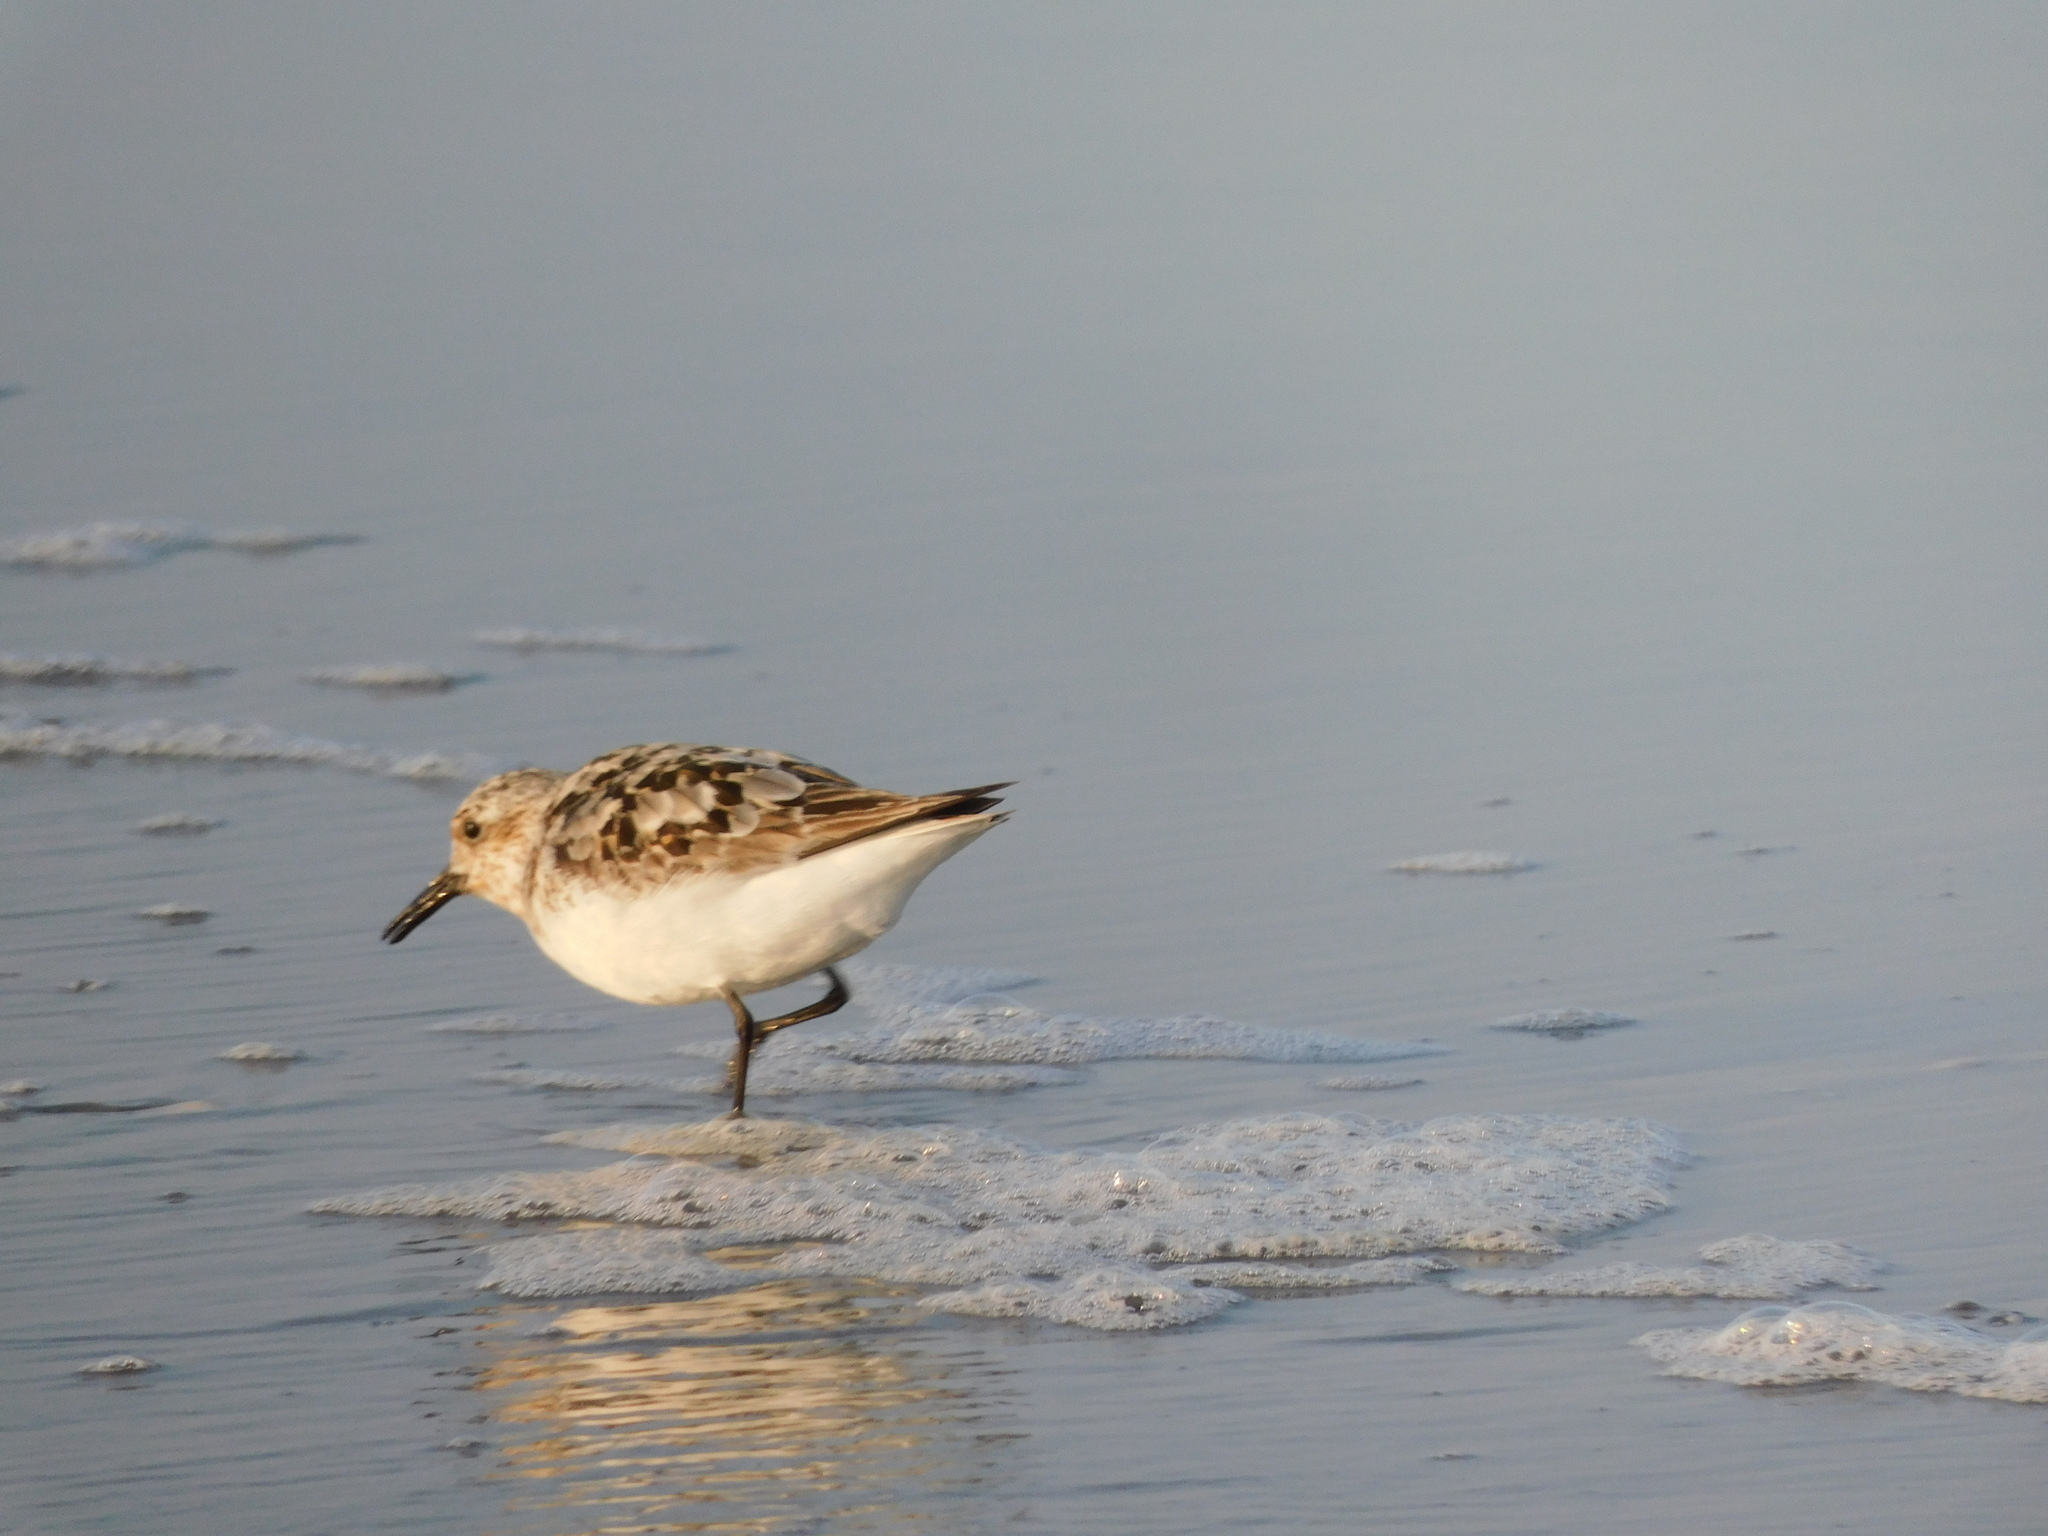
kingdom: Animalia
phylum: Chordata
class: Aves
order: Charadriiformes
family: Scolopacidae
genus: Calidris
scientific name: Calidris alba
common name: Sanderling
